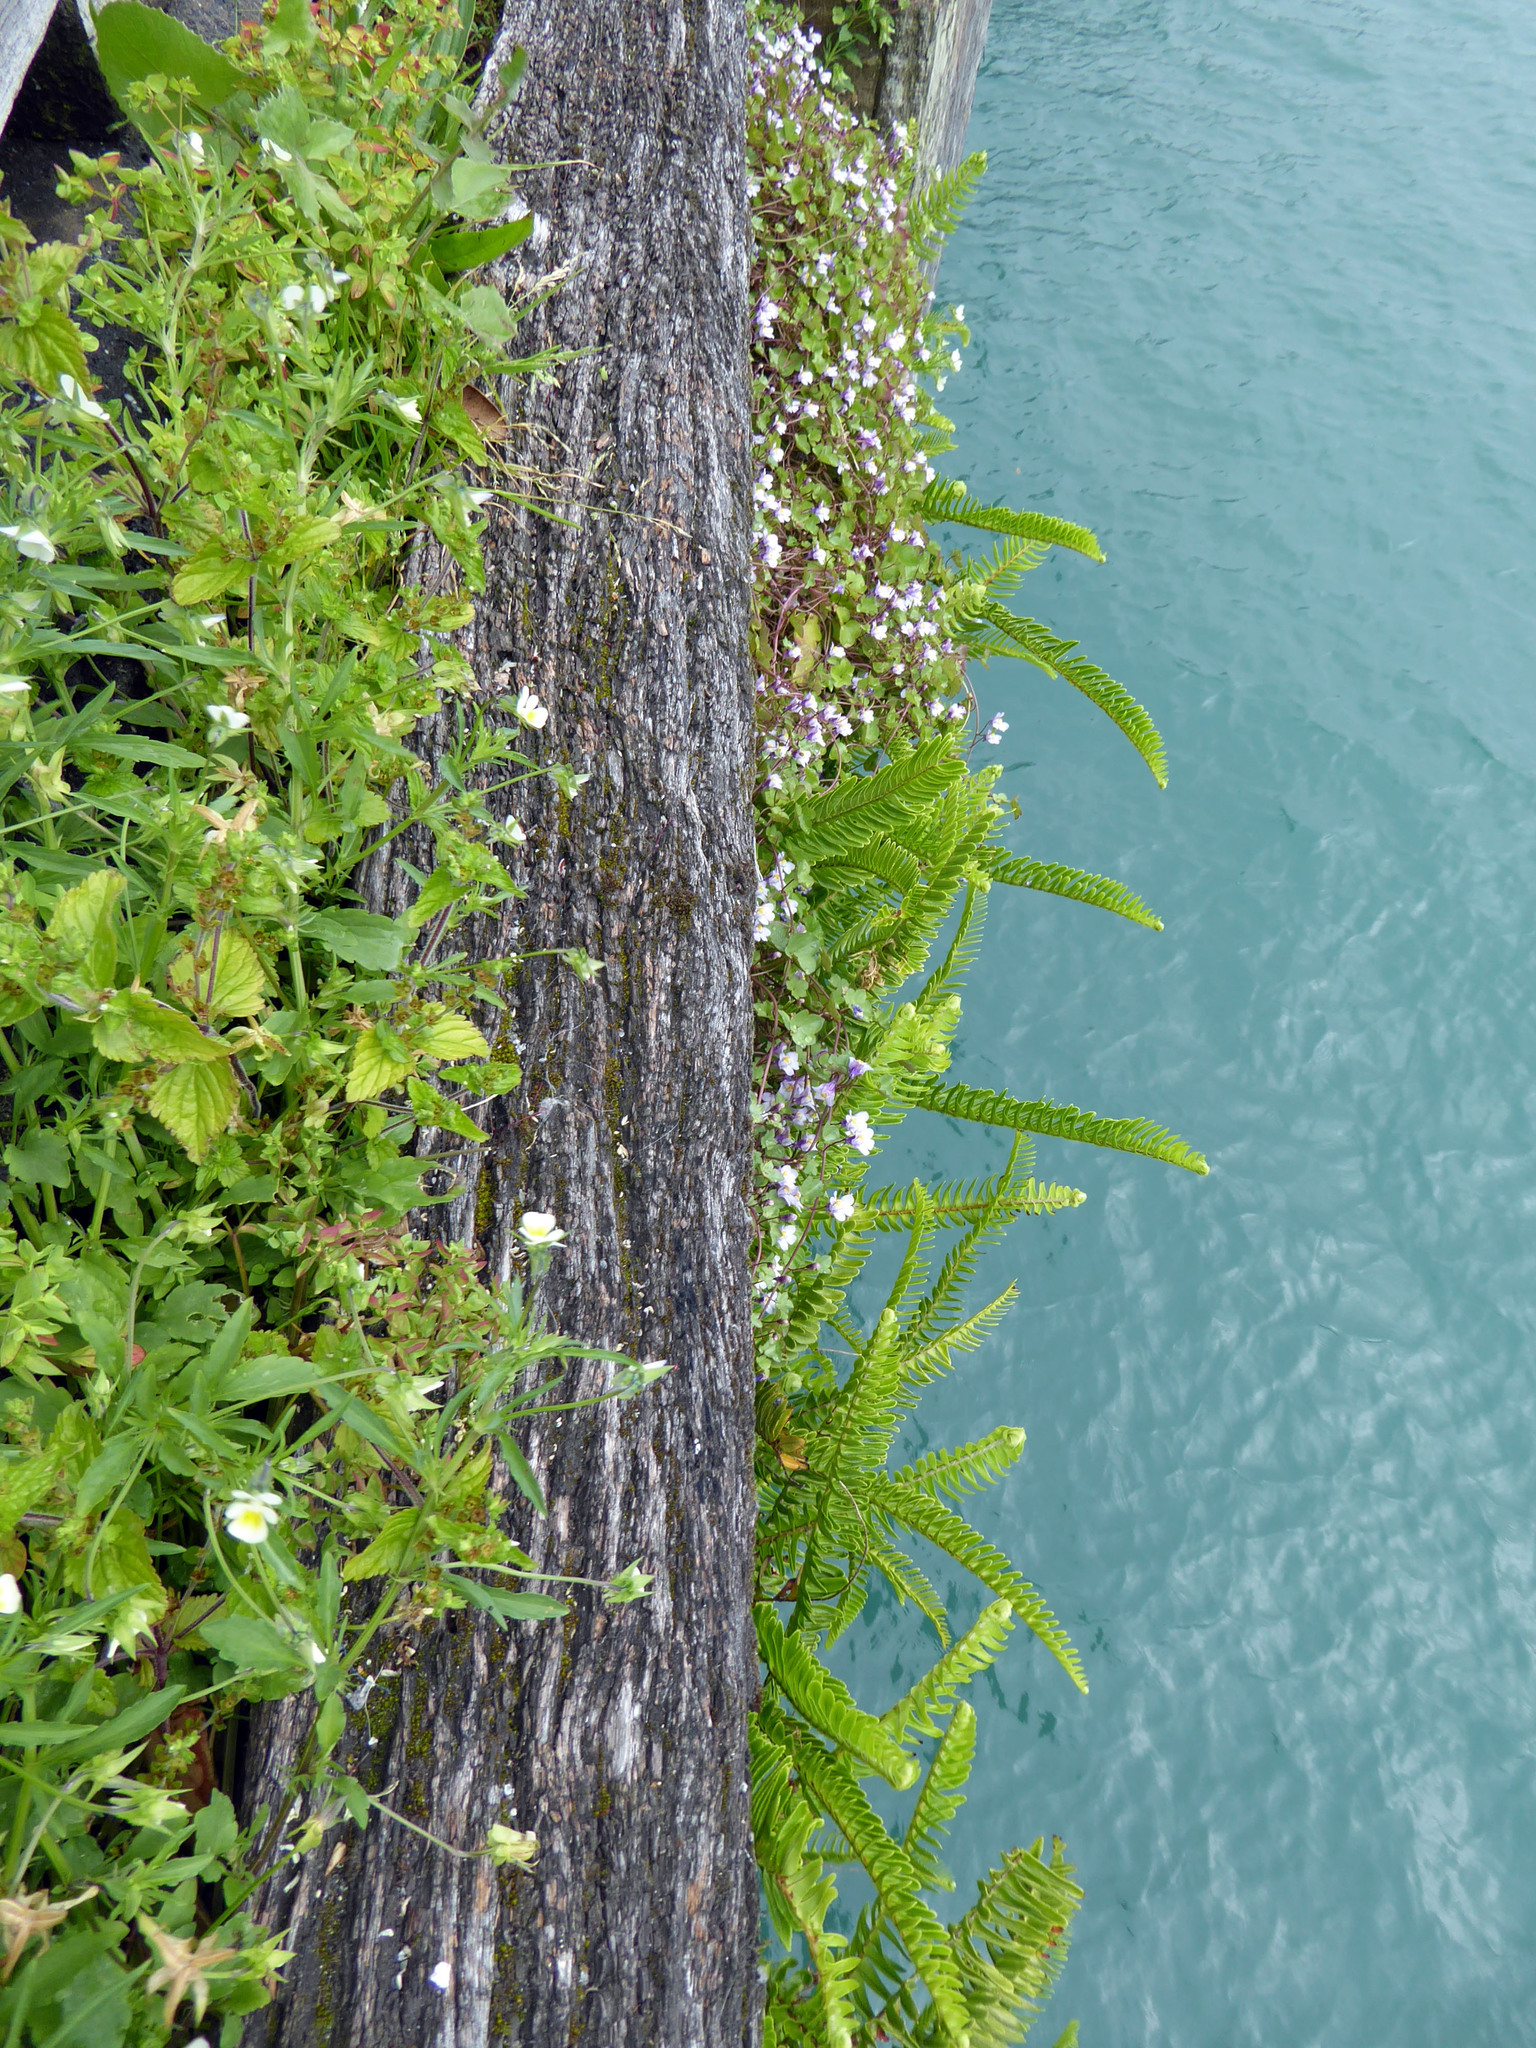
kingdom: Plantae
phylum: Tracheophyta
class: Magnoliopsida
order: Malpighiales
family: Violaceae
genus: Viola
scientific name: Viola arvensis
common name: Field pansy
